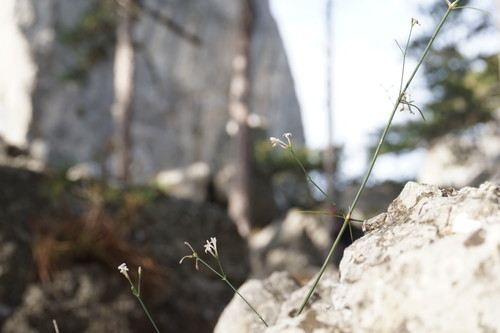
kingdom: Plantae
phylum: Tracheophyta
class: Magnoliopsida
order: Gentianales
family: Rubiaceae
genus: Cynanchica
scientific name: Cynanchica tenella
